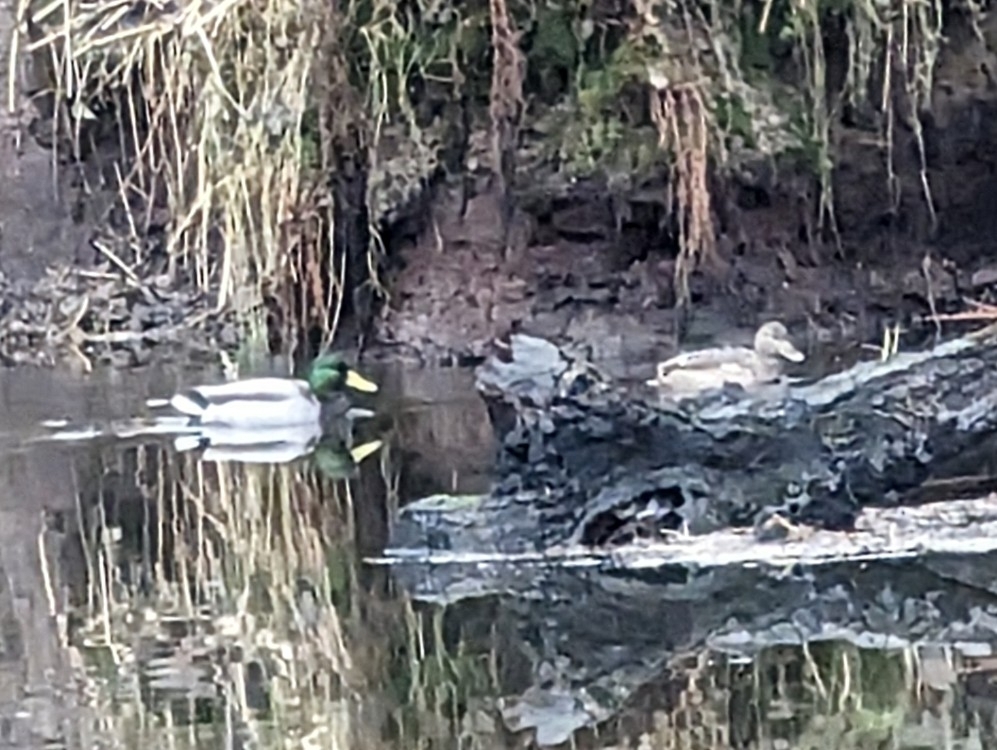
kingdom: Animalia
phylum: Chordata
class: Aves
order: Anseriformes
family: Anatidae
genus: Anas
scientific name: Anas platyrhynchos
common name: Mallard
